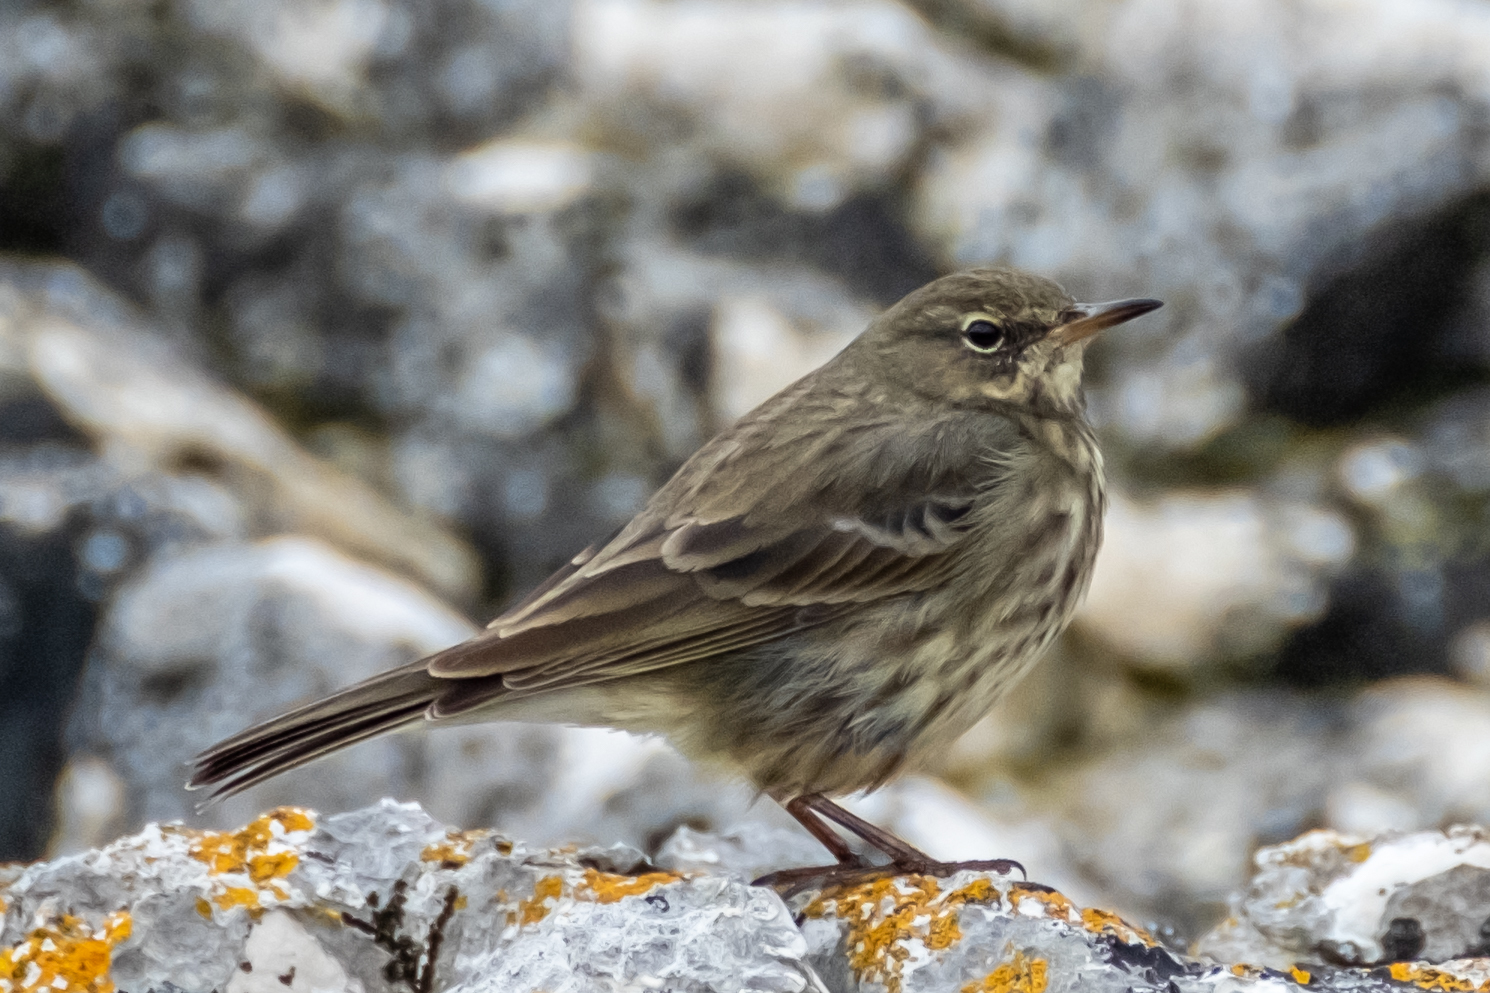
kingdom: Animalia
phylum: Chordata
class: Aves
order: Passeriformes
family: Motacillidae
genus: Anthus
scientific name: Anthus petrosus
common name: Eurasian rock pipit
